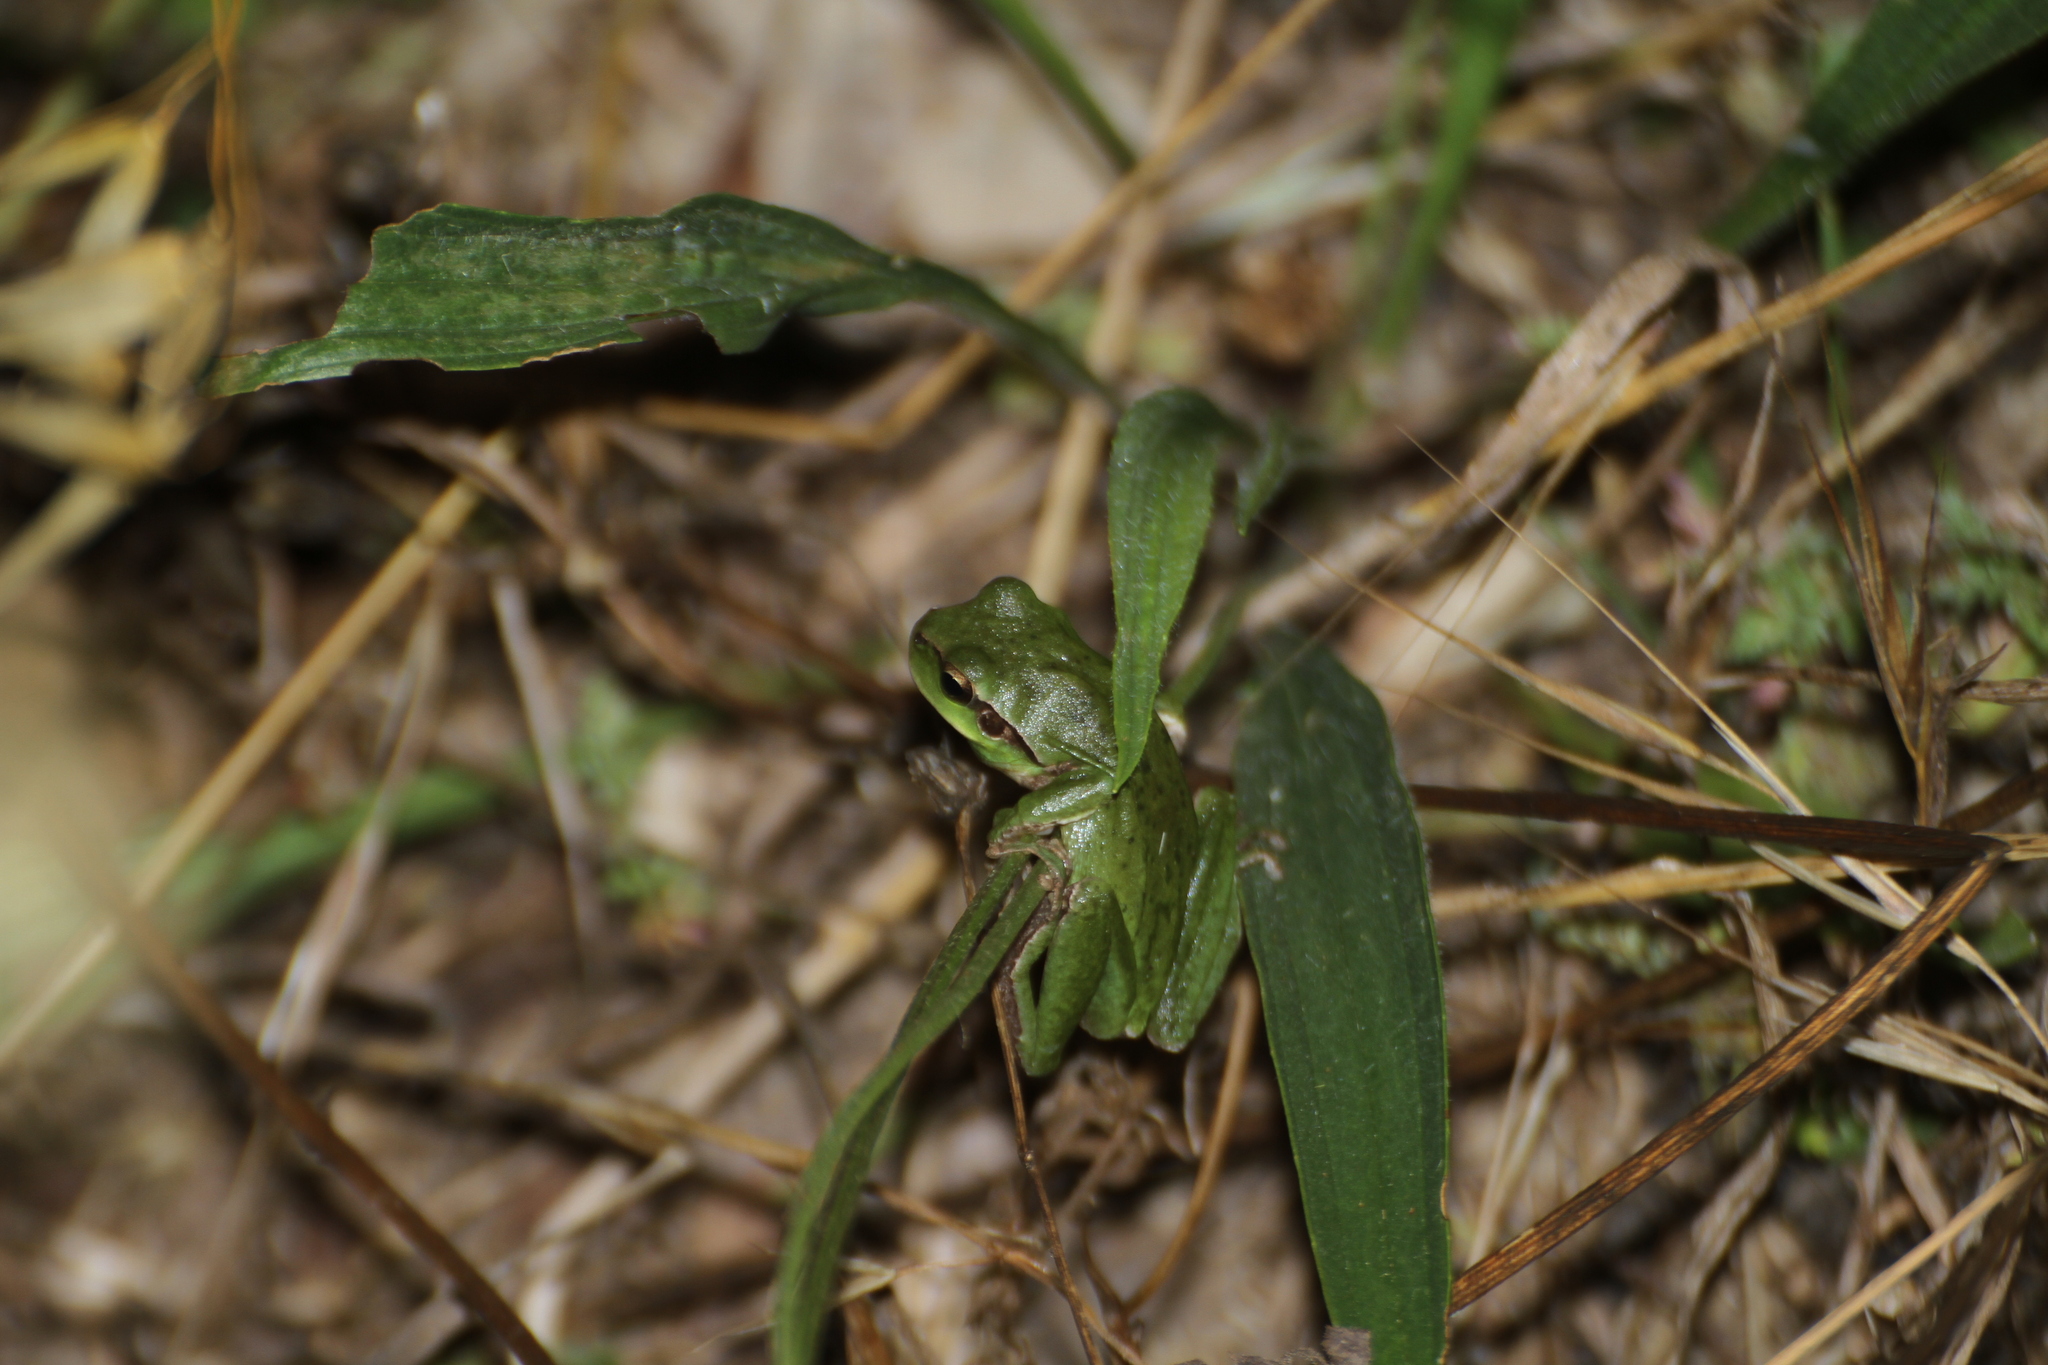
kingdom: Animalia
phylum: Chordata
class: Amphibia
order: Anura
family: Hylidae
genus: Hyla
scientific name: Hyla meridionalis
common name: Stripeless tree frog
